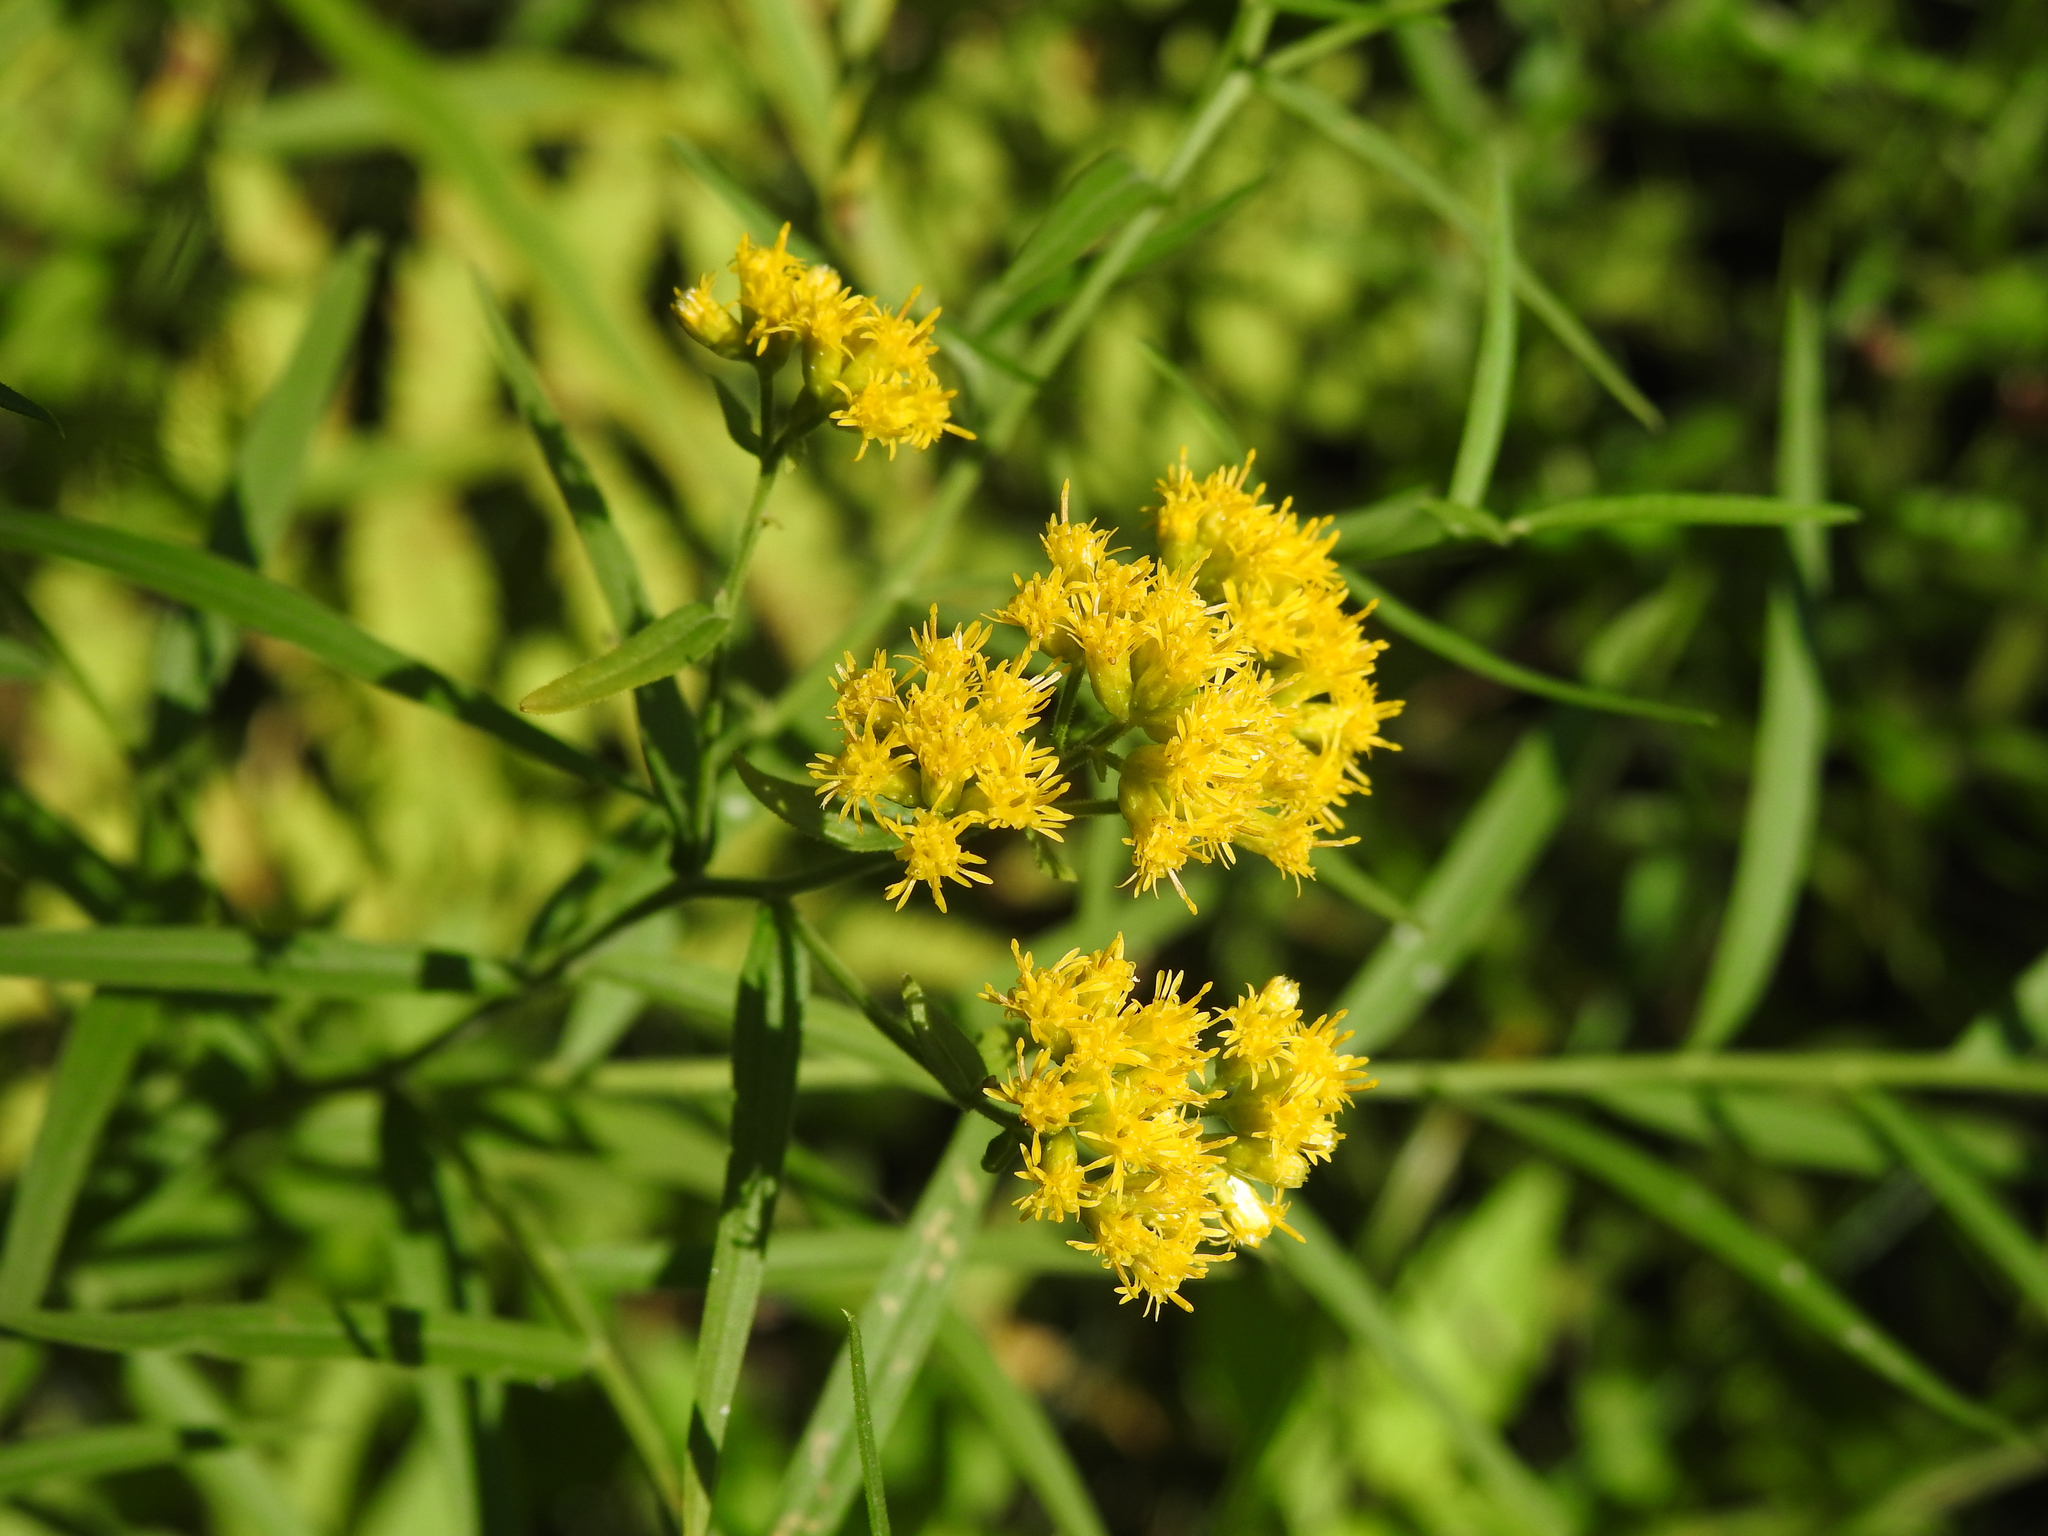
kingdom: Plantae
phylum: Tracheophyta
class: Magnoliopsida
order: Asterales
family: Asteraceae
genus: Euthamia
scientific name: Euthamia graminifolia
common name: Common goldentop
